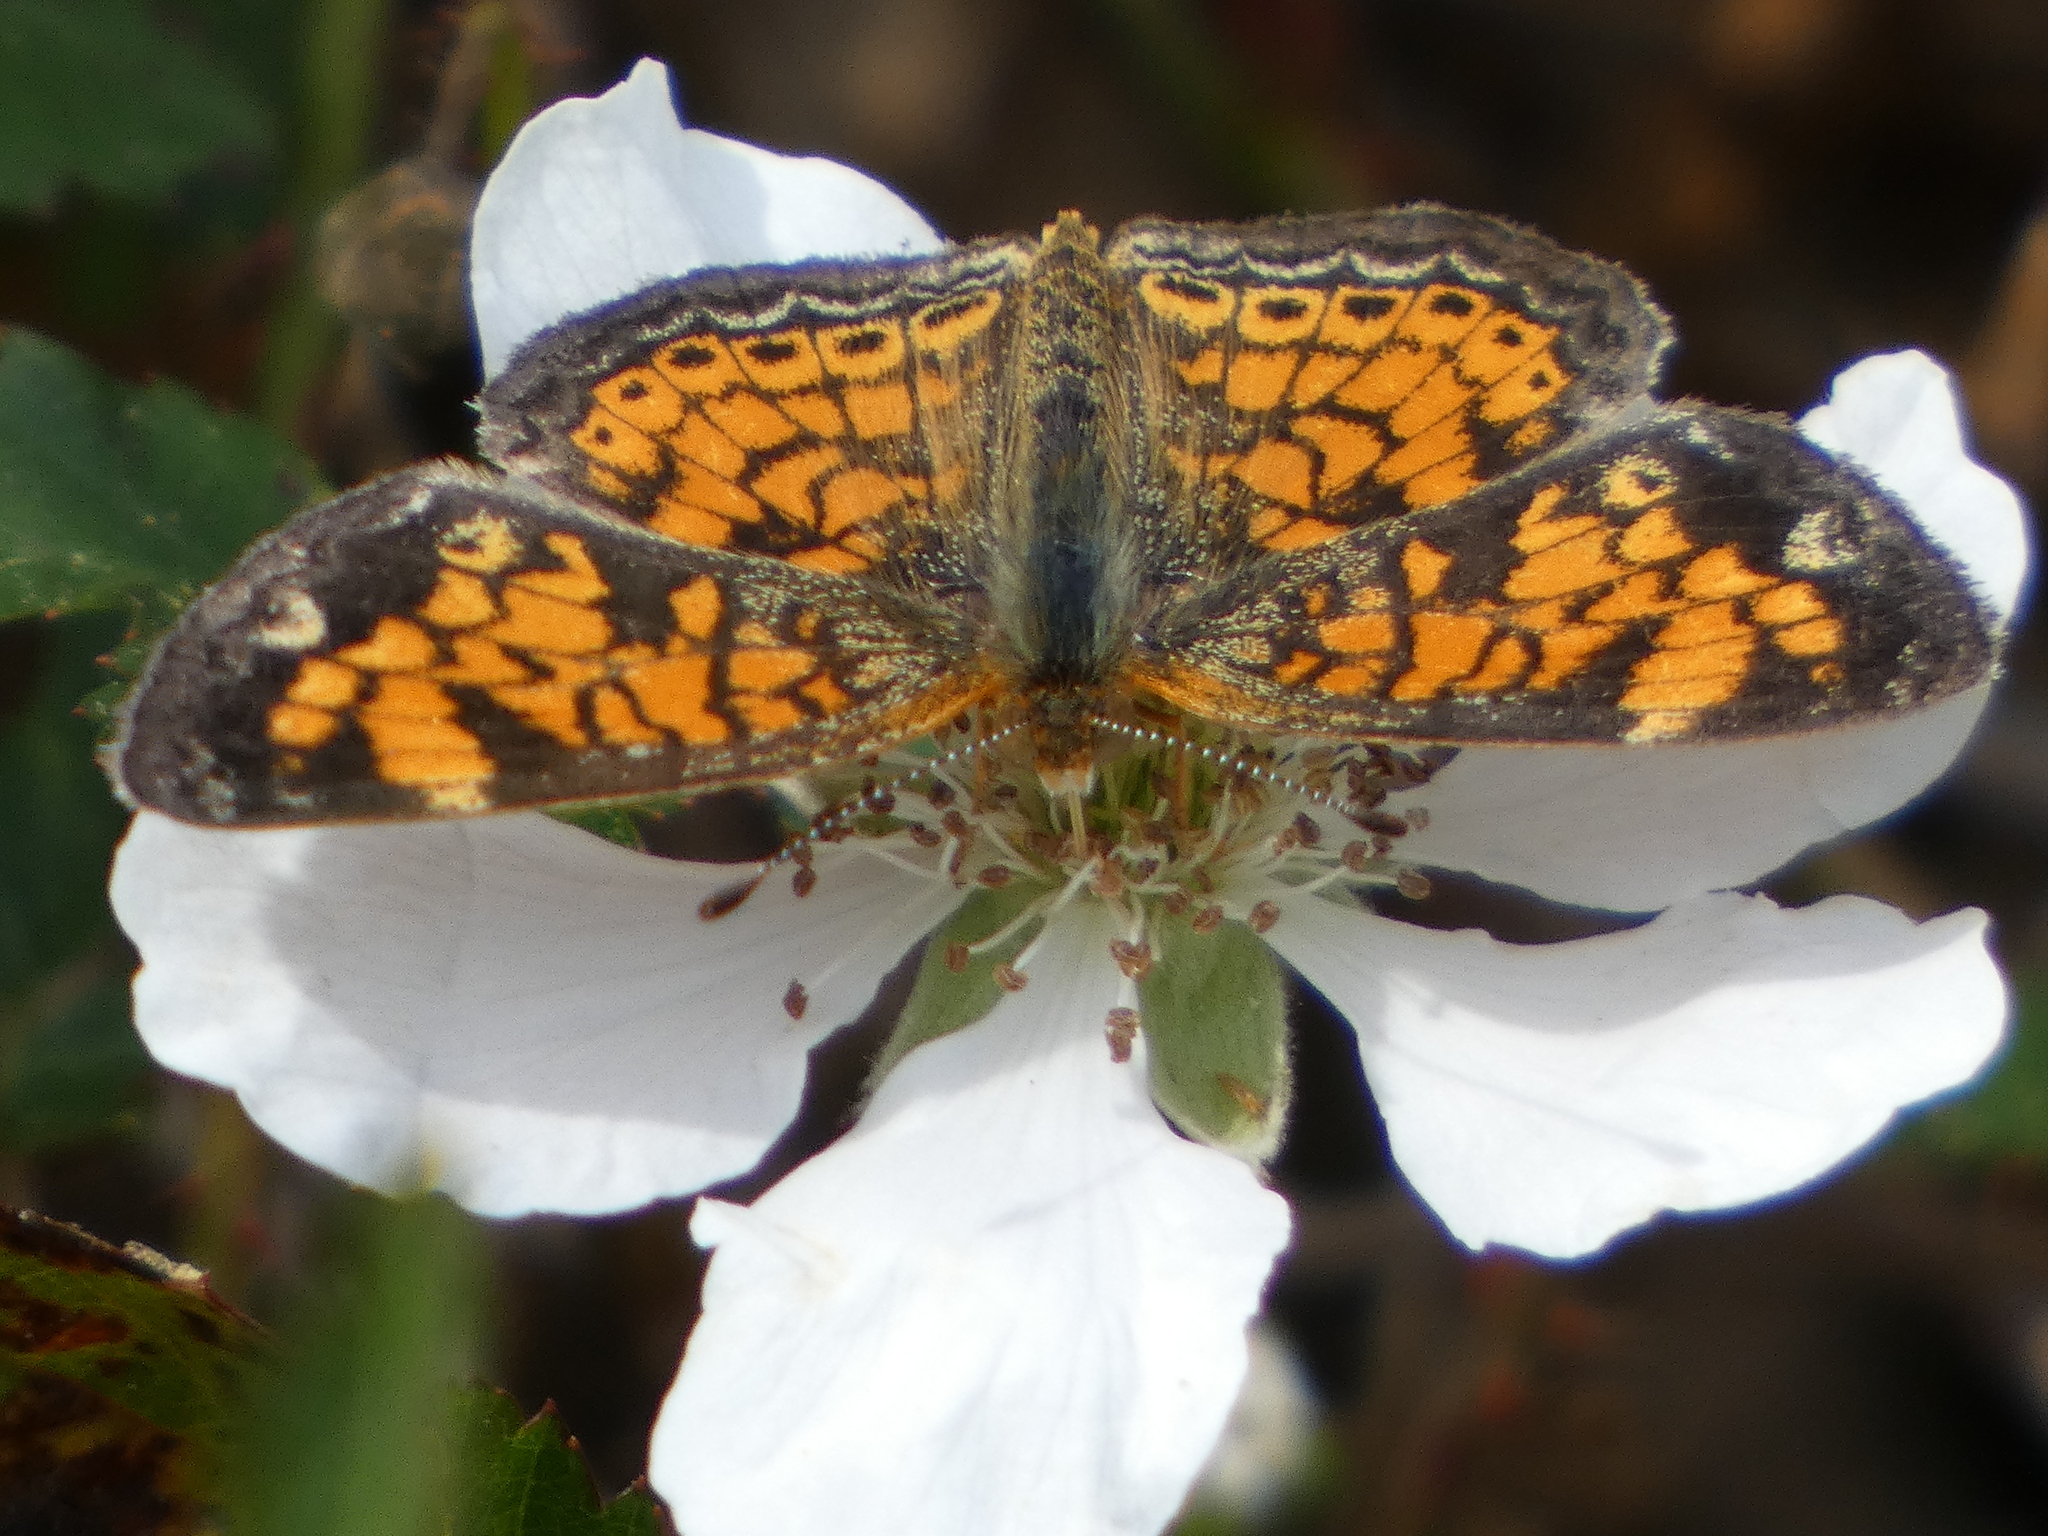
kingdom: Animalia
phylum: Arthropoda
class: Insecta
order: Lepidoptera
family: Nymphalidae
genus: Phyciodes
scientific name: Phyciodes tharos
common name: Pearl crescent
